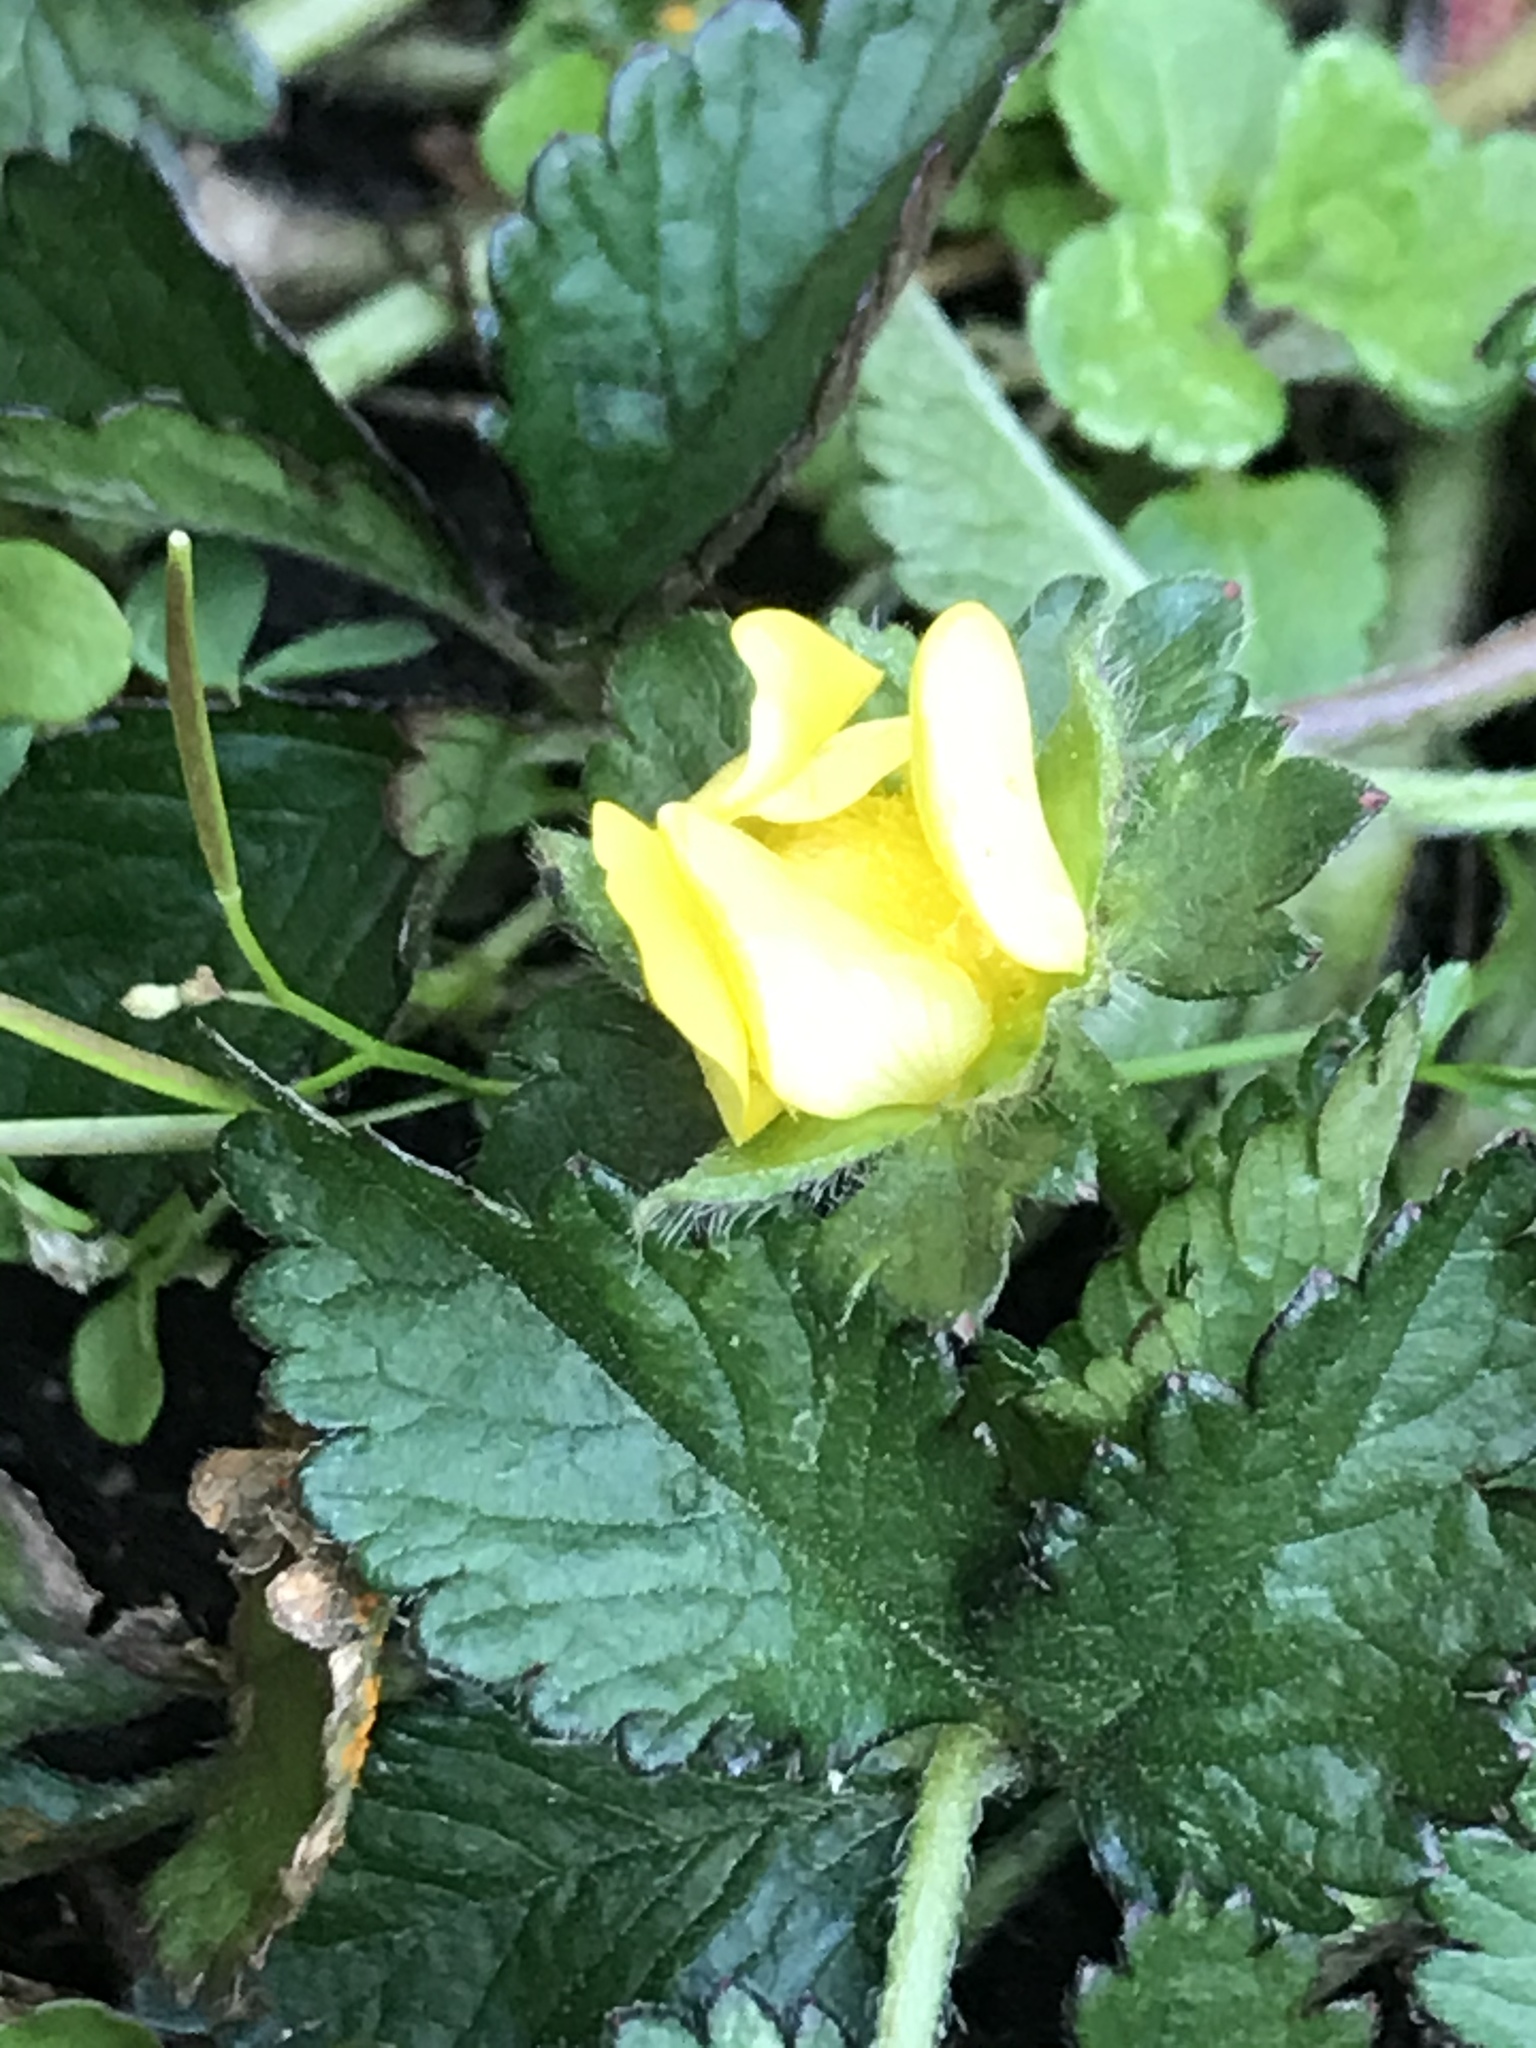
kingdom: Plantae
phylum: Tracheophyta
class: Magnoliopsida
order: Rosales
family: Rosaceae
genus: Potentilla
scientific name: Potentilla indica
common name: Yellow-flowered strawberry
